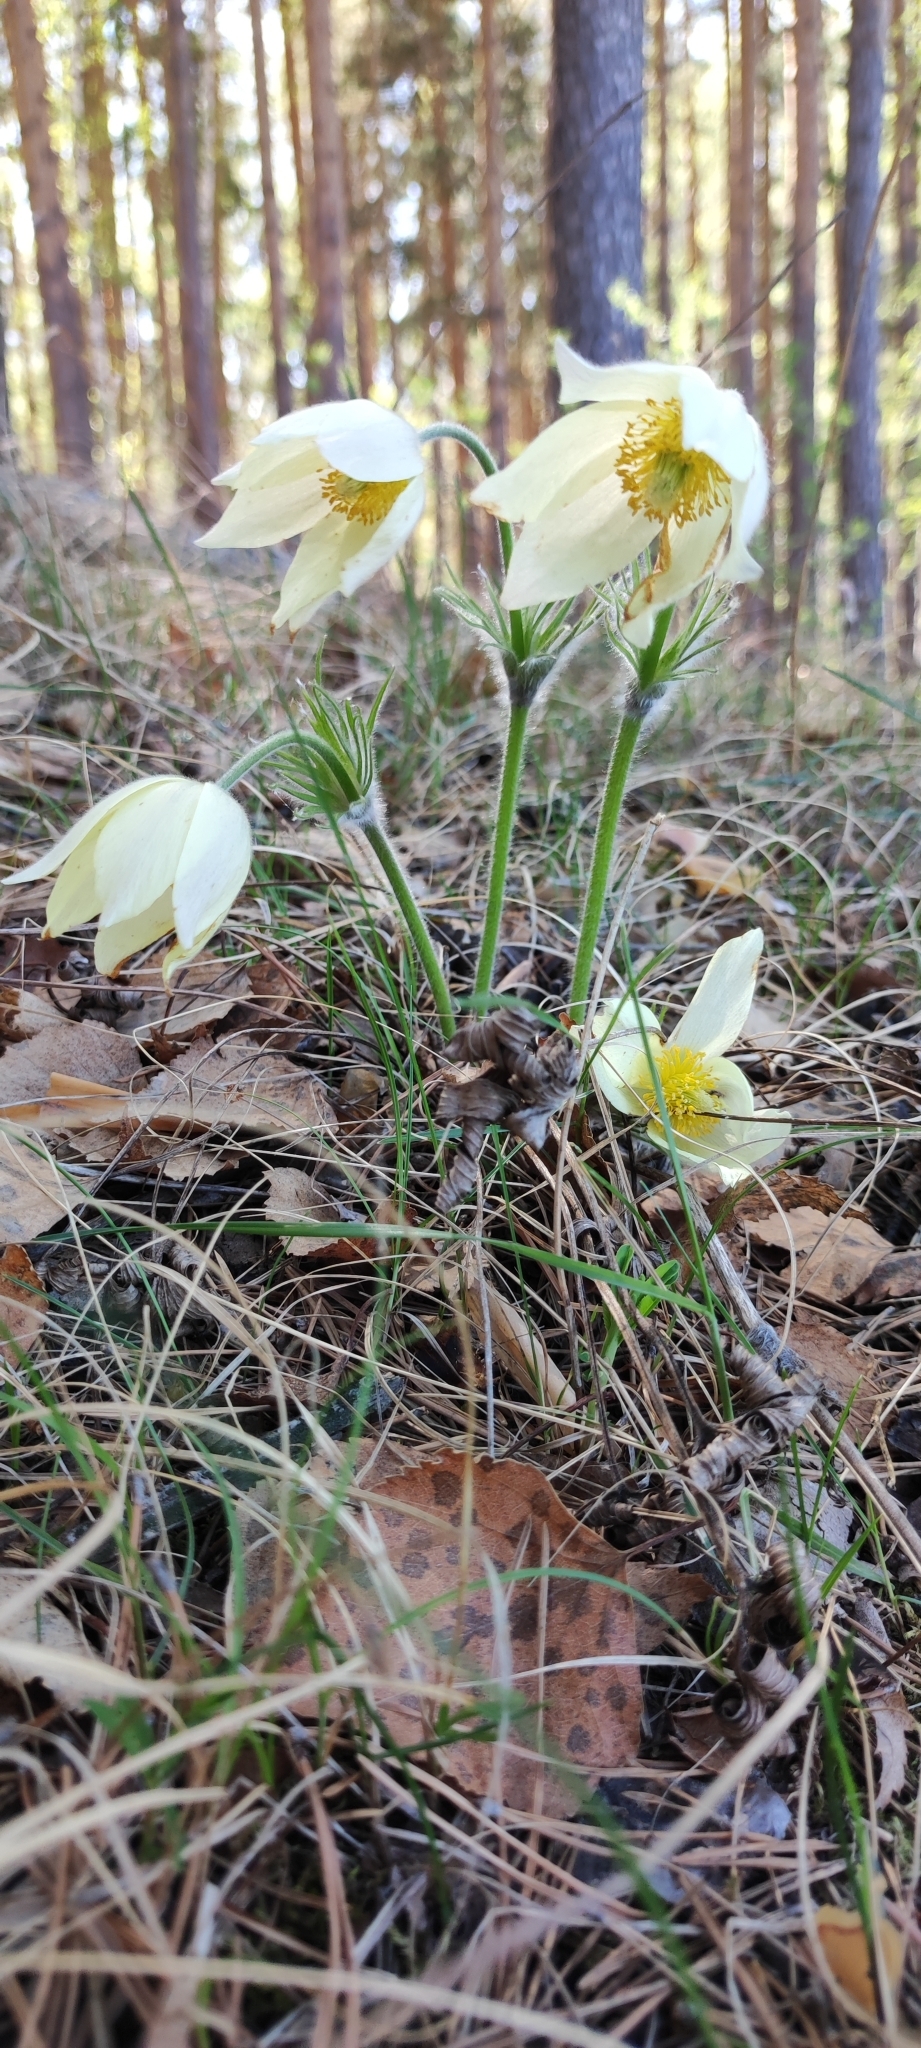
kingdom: Plantae
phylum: Tracheophyta
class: Magnoliopsida
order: Ranunculales
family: Ranunculaceae
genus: Pulsatilla
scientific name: Pulsatilla patens
